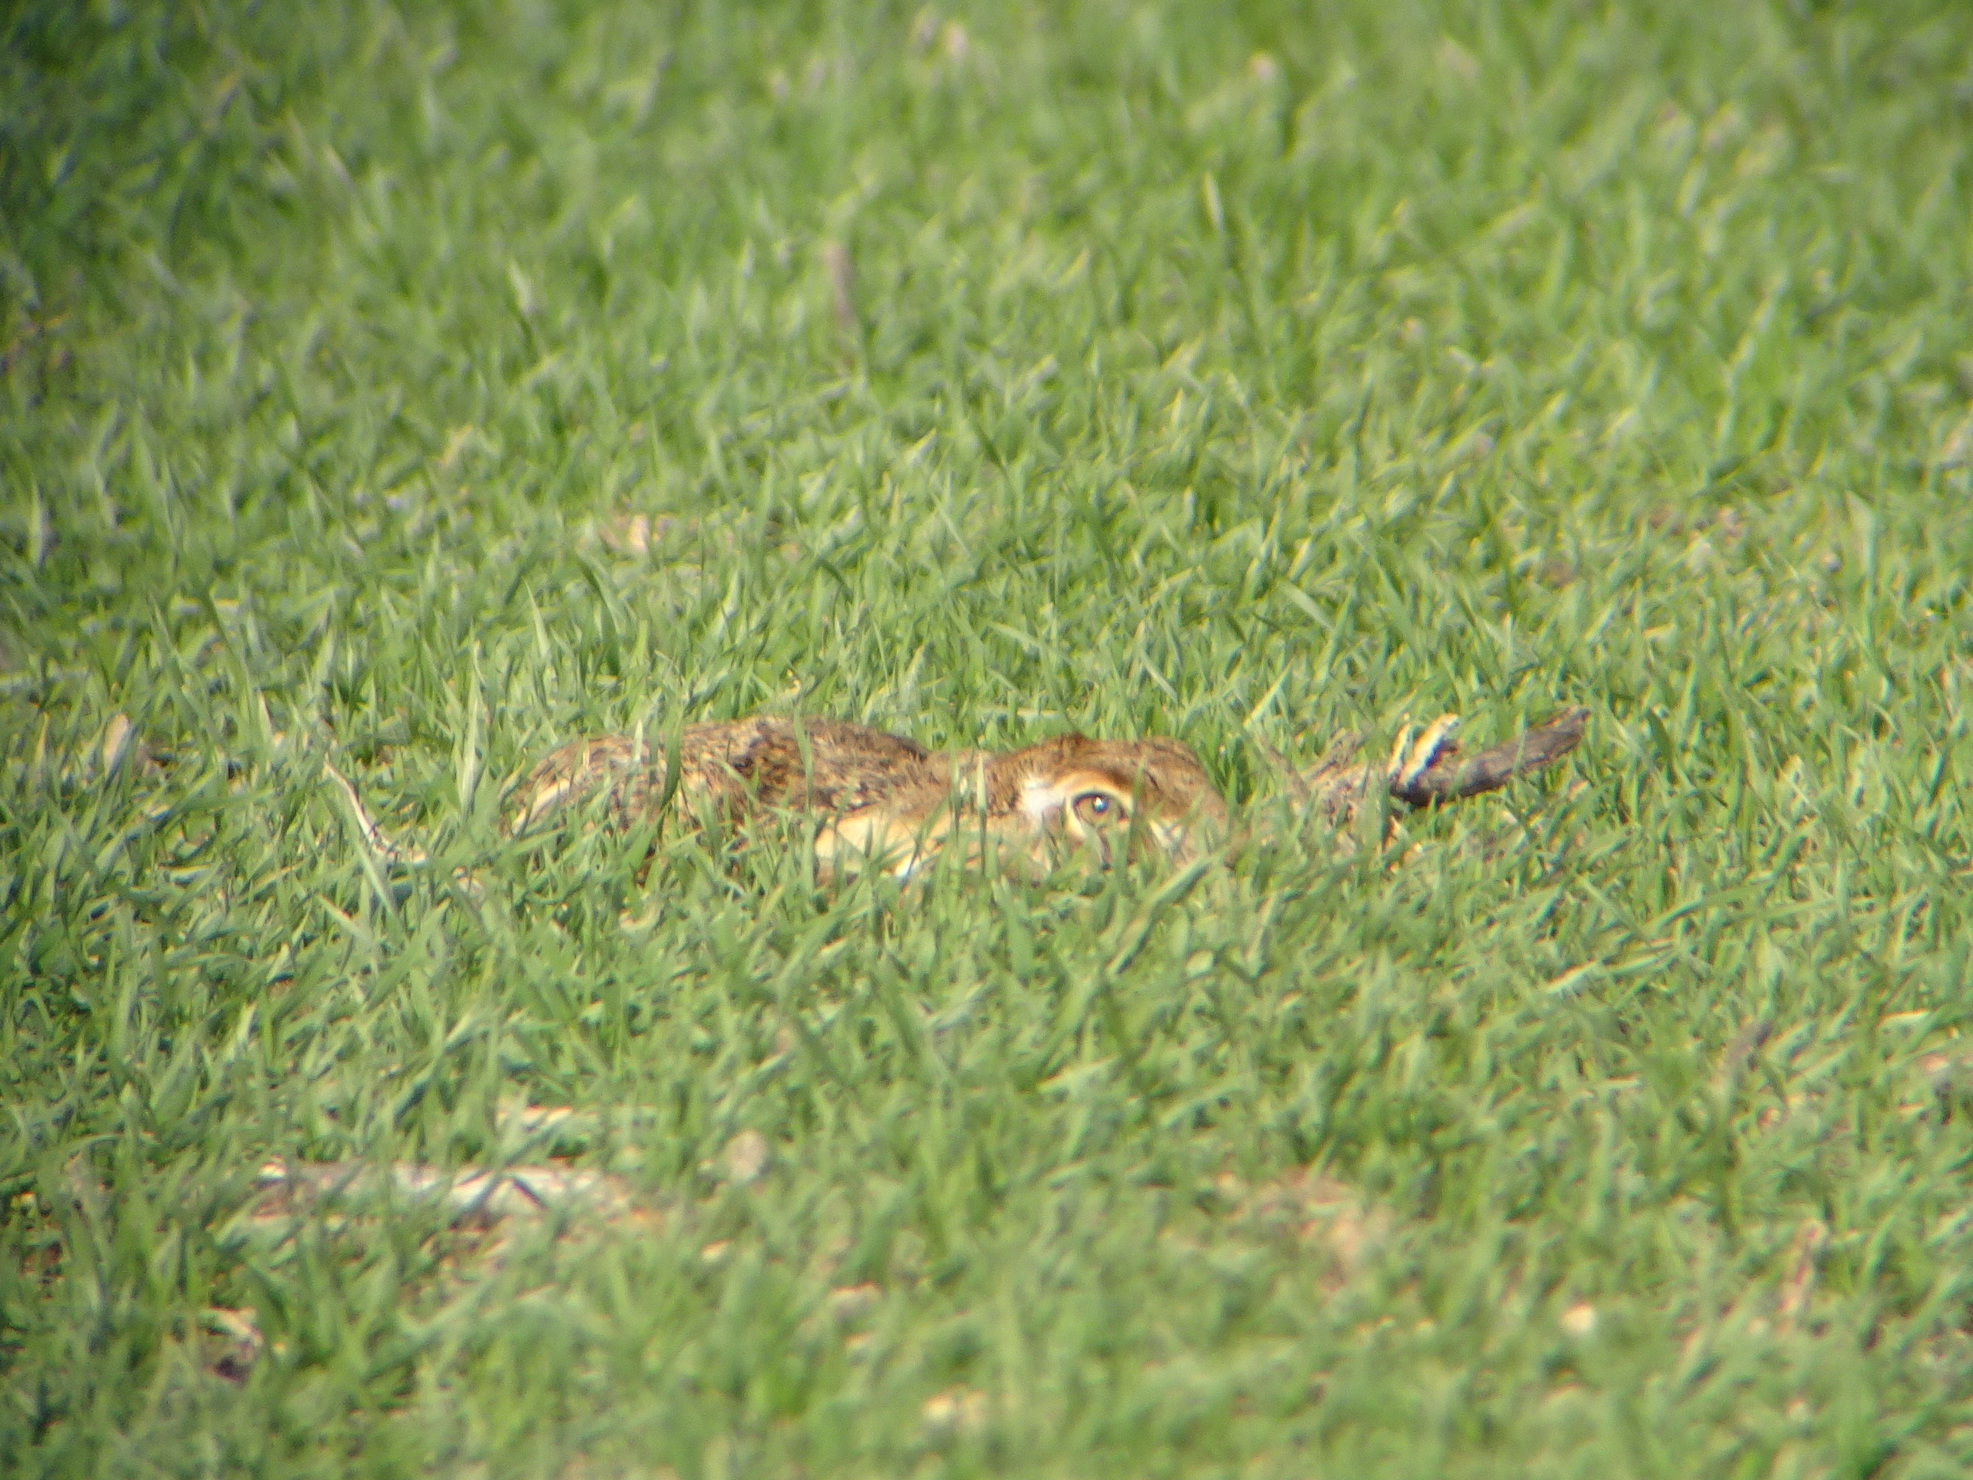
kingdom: Animalia
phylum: Chordata
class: Mammalia
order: Lagomorpha
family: Leporidae
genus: Lepus
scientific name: Lepus europaeus
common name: European hare
